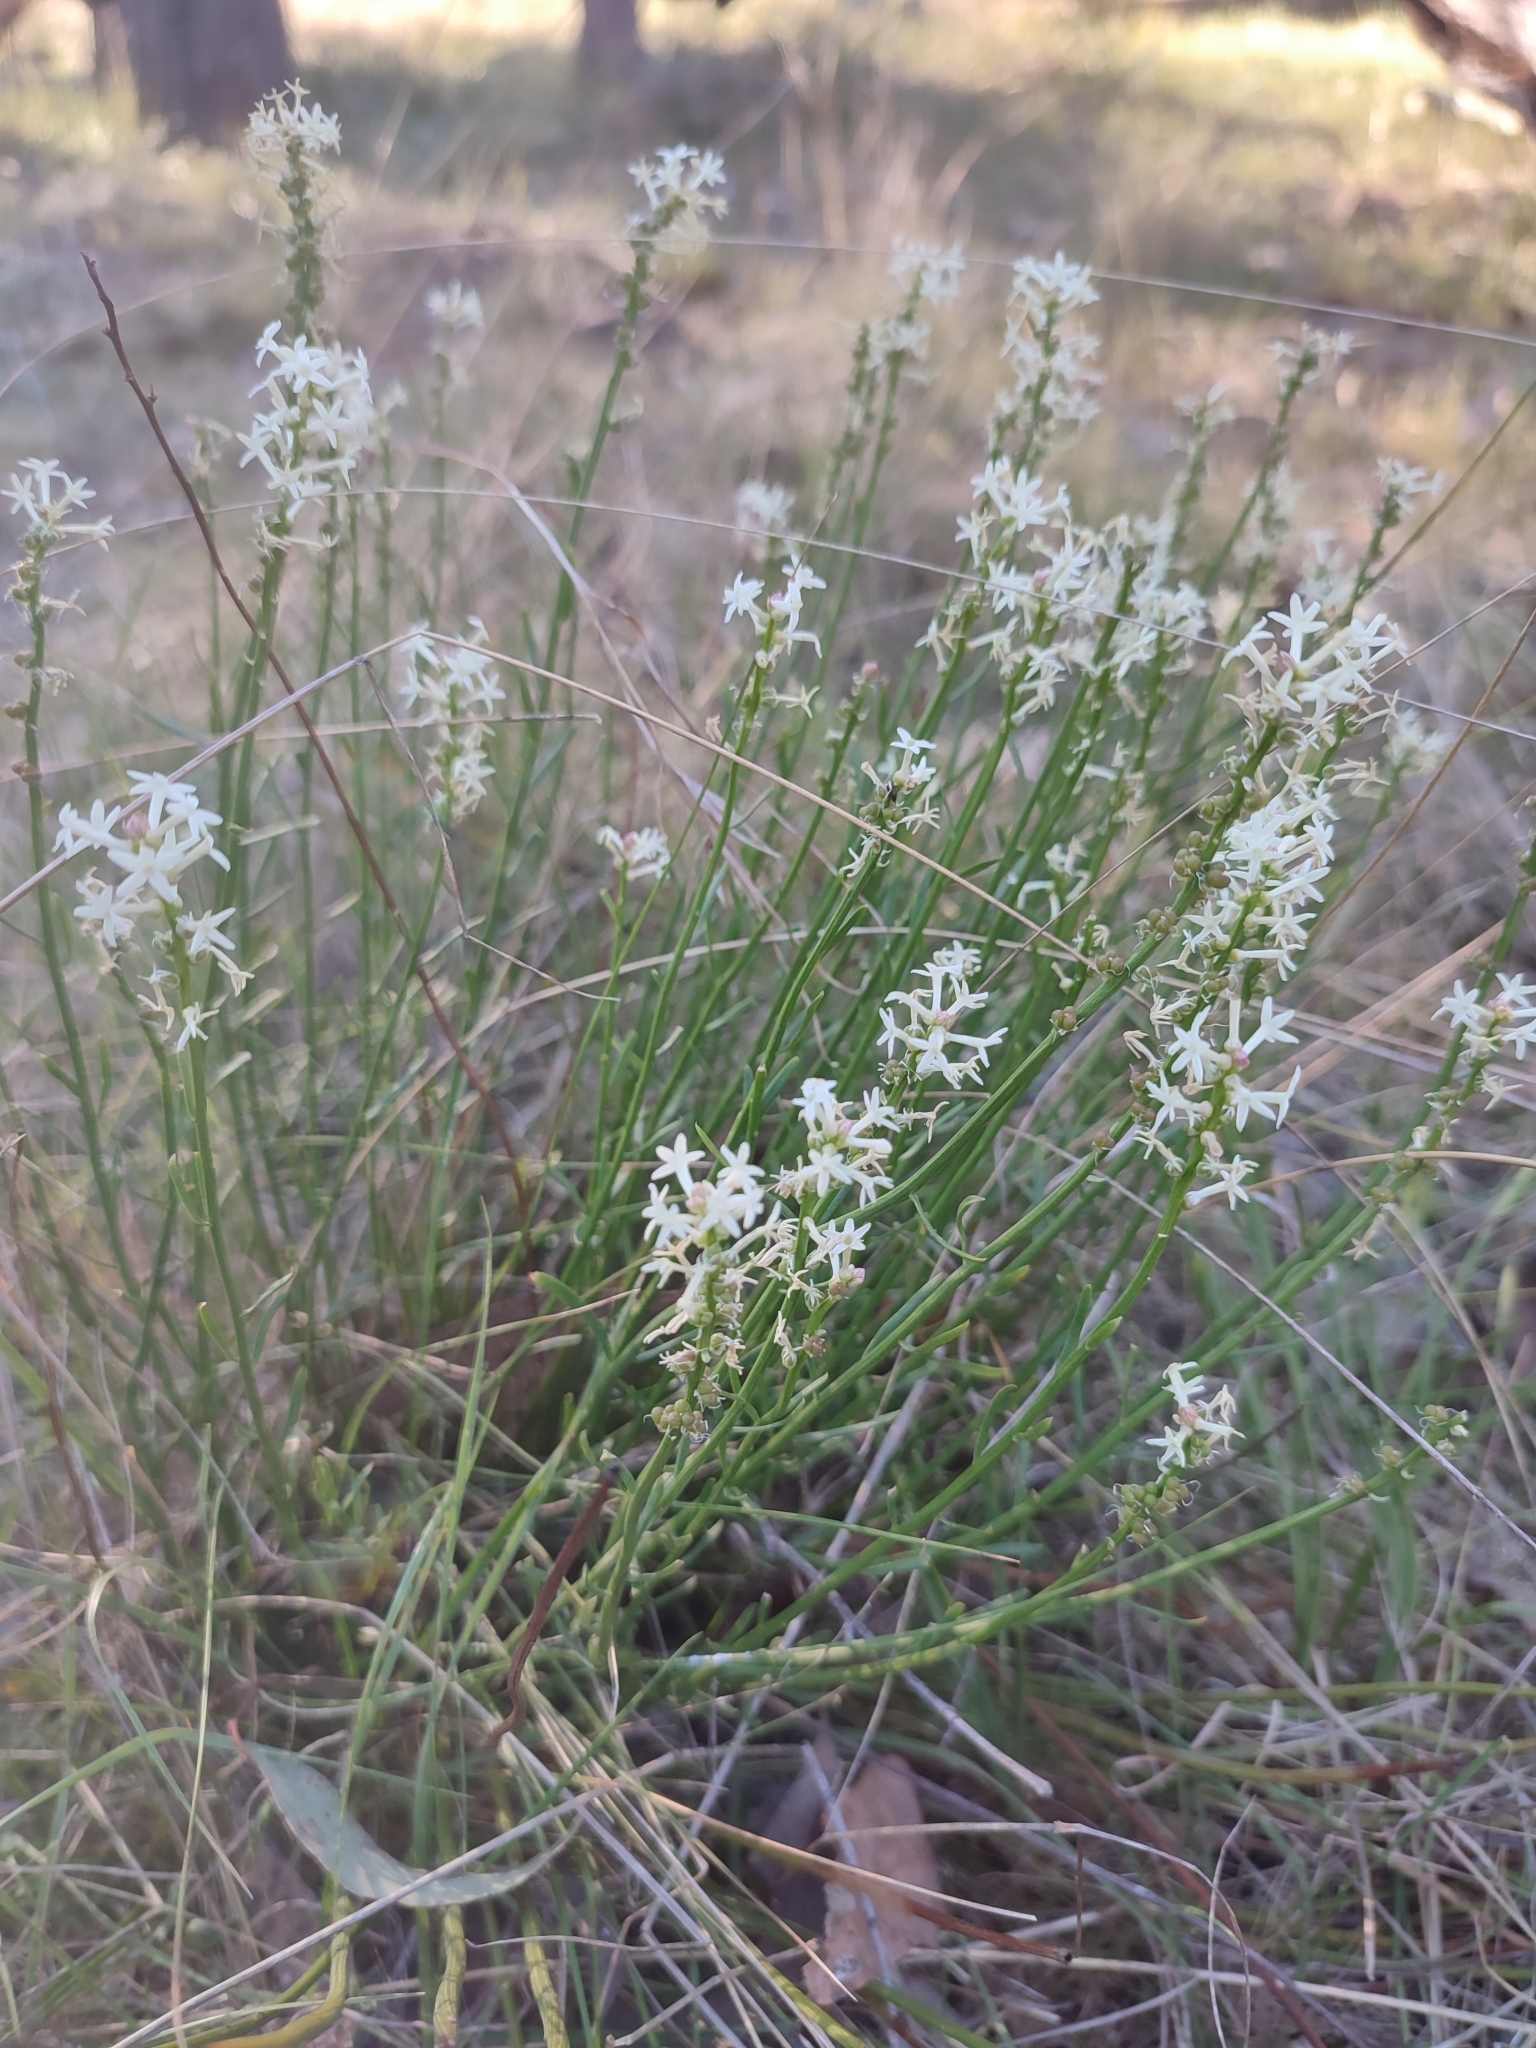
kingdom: Plantae
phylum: Tracheophyta
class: Magnoliopsida
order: Celastrales
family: Celastraceae
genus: Stackhousia
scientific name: Stackhousia monogyna
